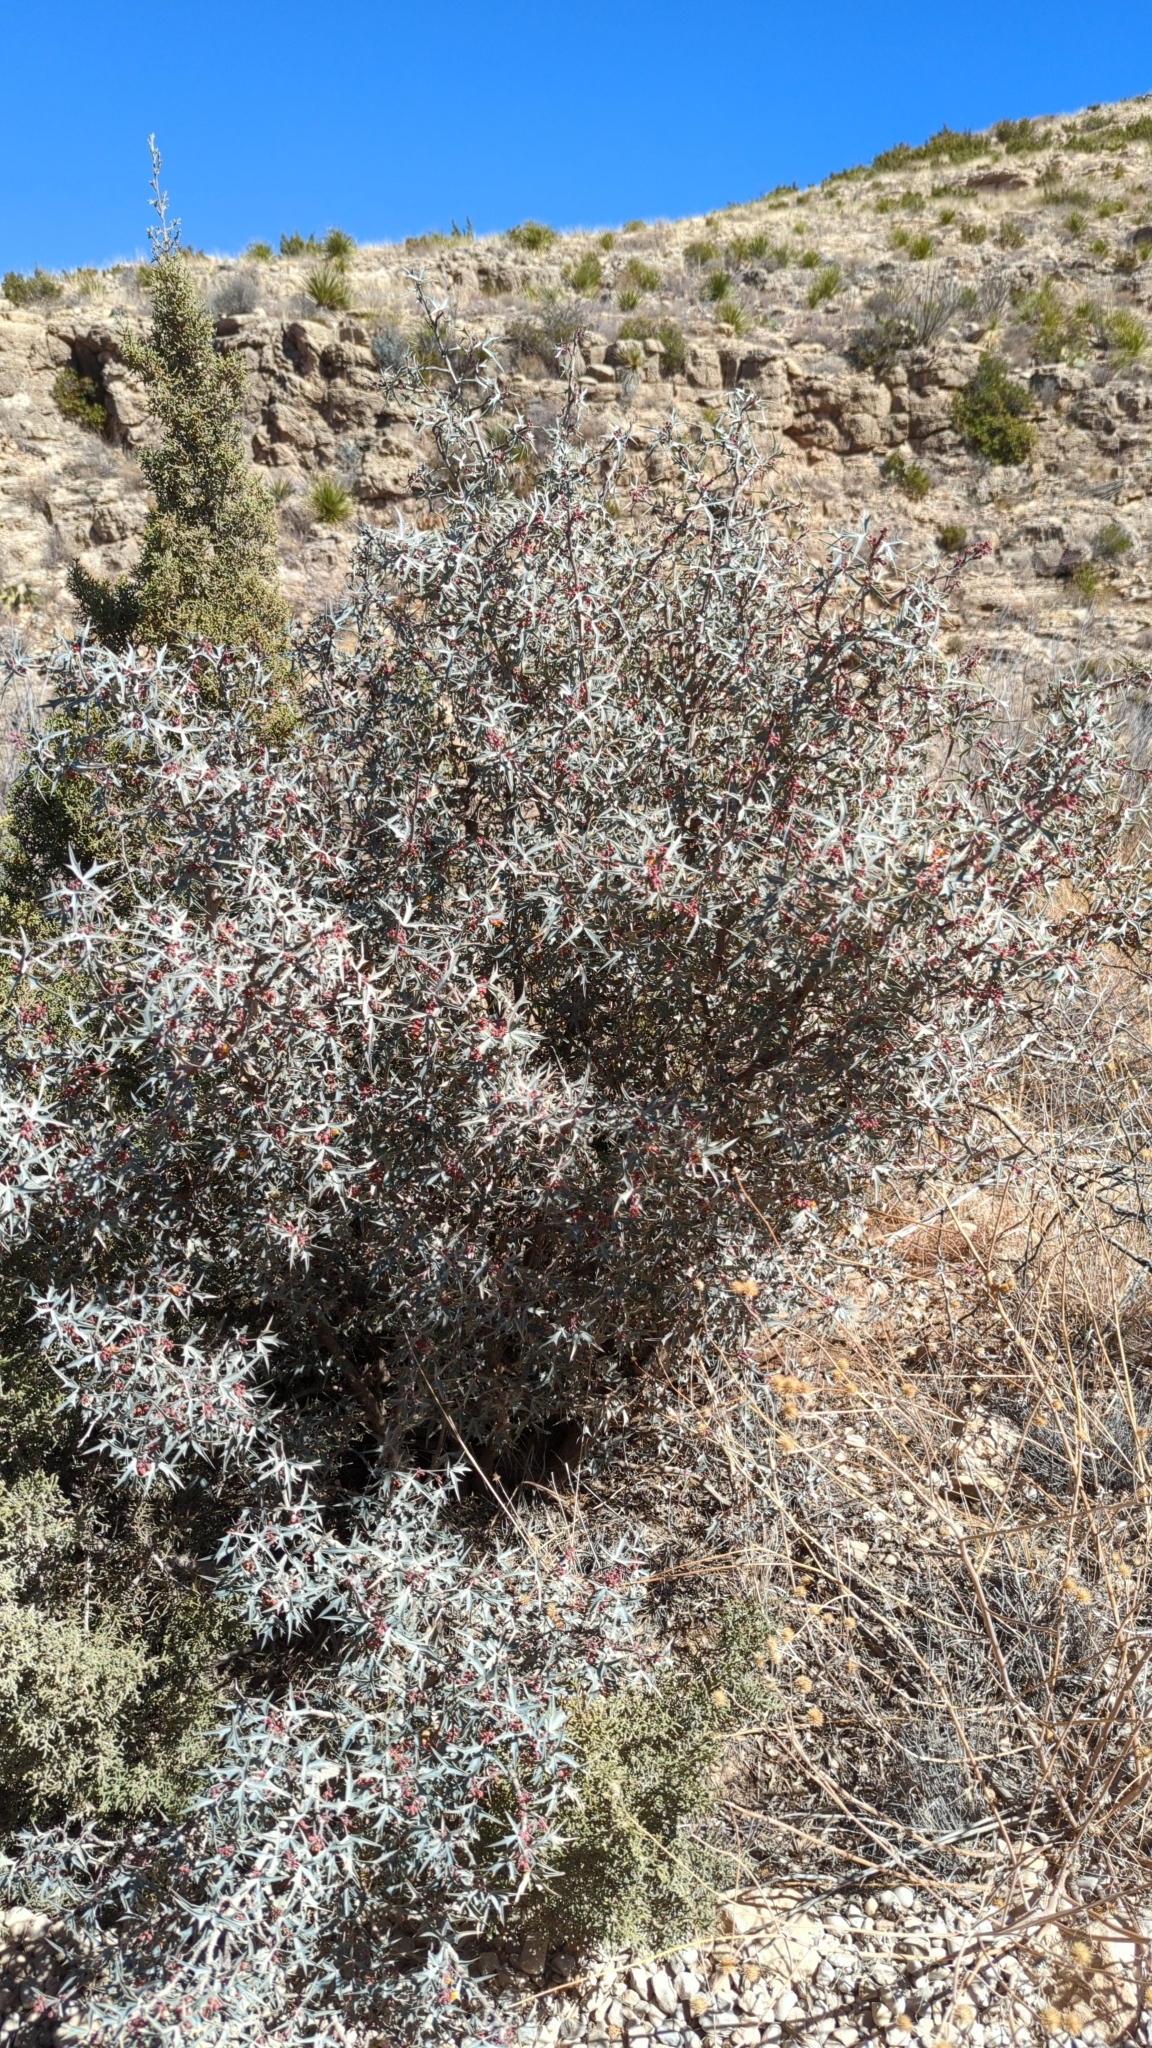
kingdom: Plantae
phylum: Tracheophyta
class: Magnoliopsida
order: Ranunculales
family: Berberidaceae
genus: Alloberberis
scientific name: Alloberberis trifoliolata
